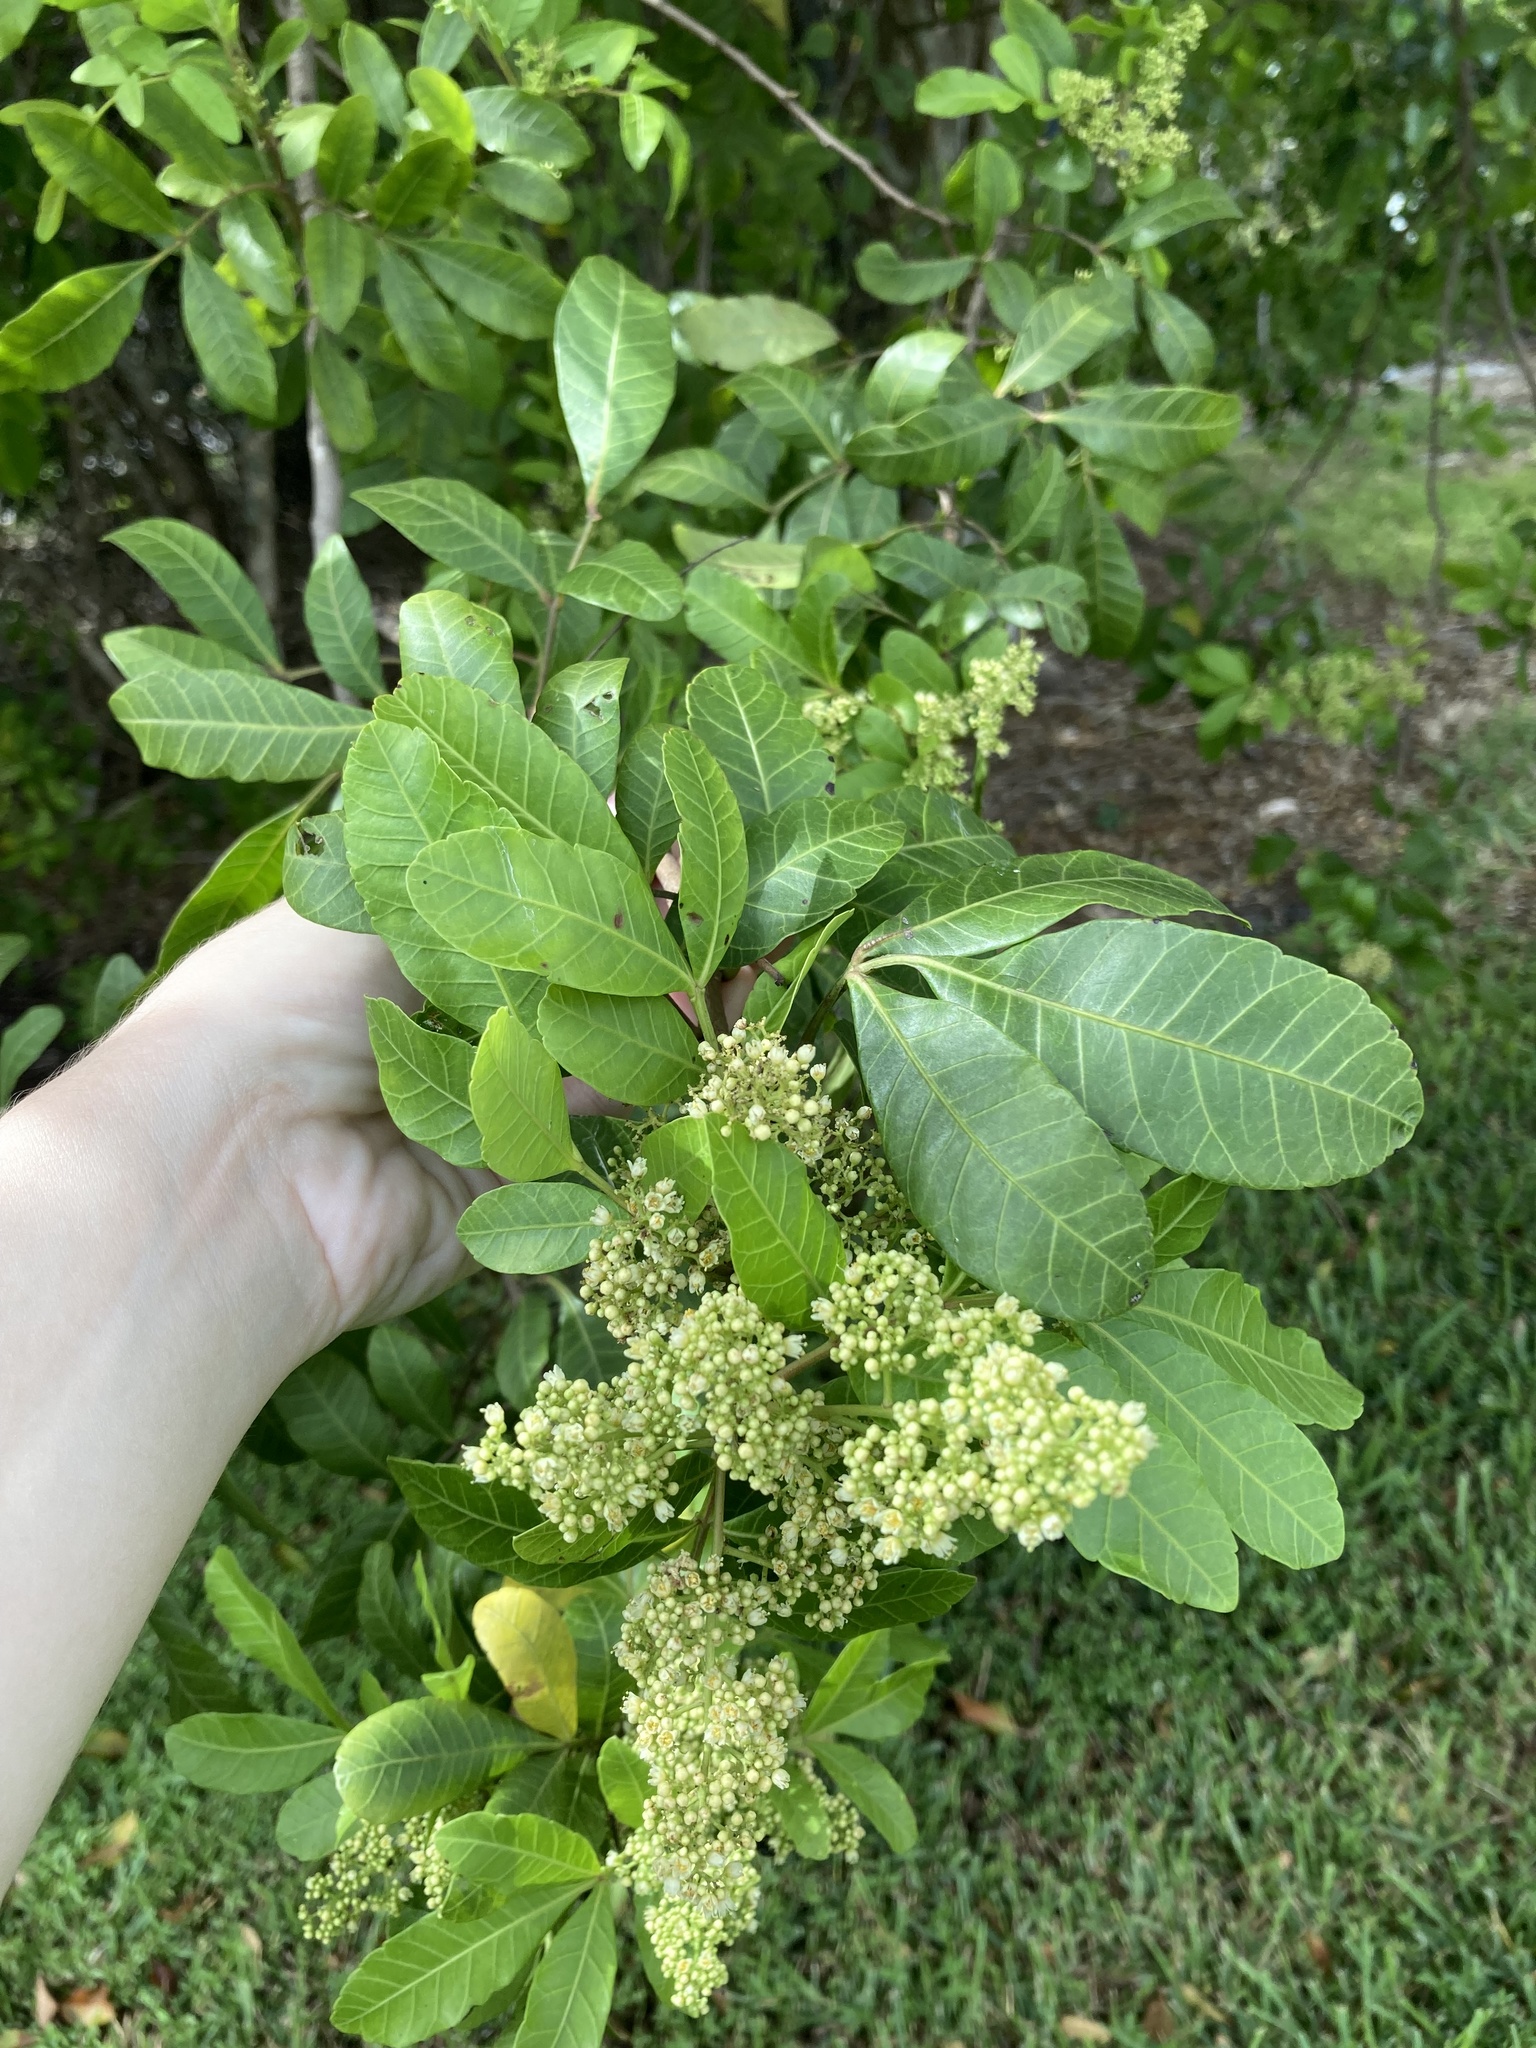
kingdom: Plantae
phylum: Tracheophyta
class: Magnoliopsida
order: Sapindales
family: Anacardiaceae
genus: Schinus
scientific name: Schinus terebinthifolia
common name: Brazilian peppertree
